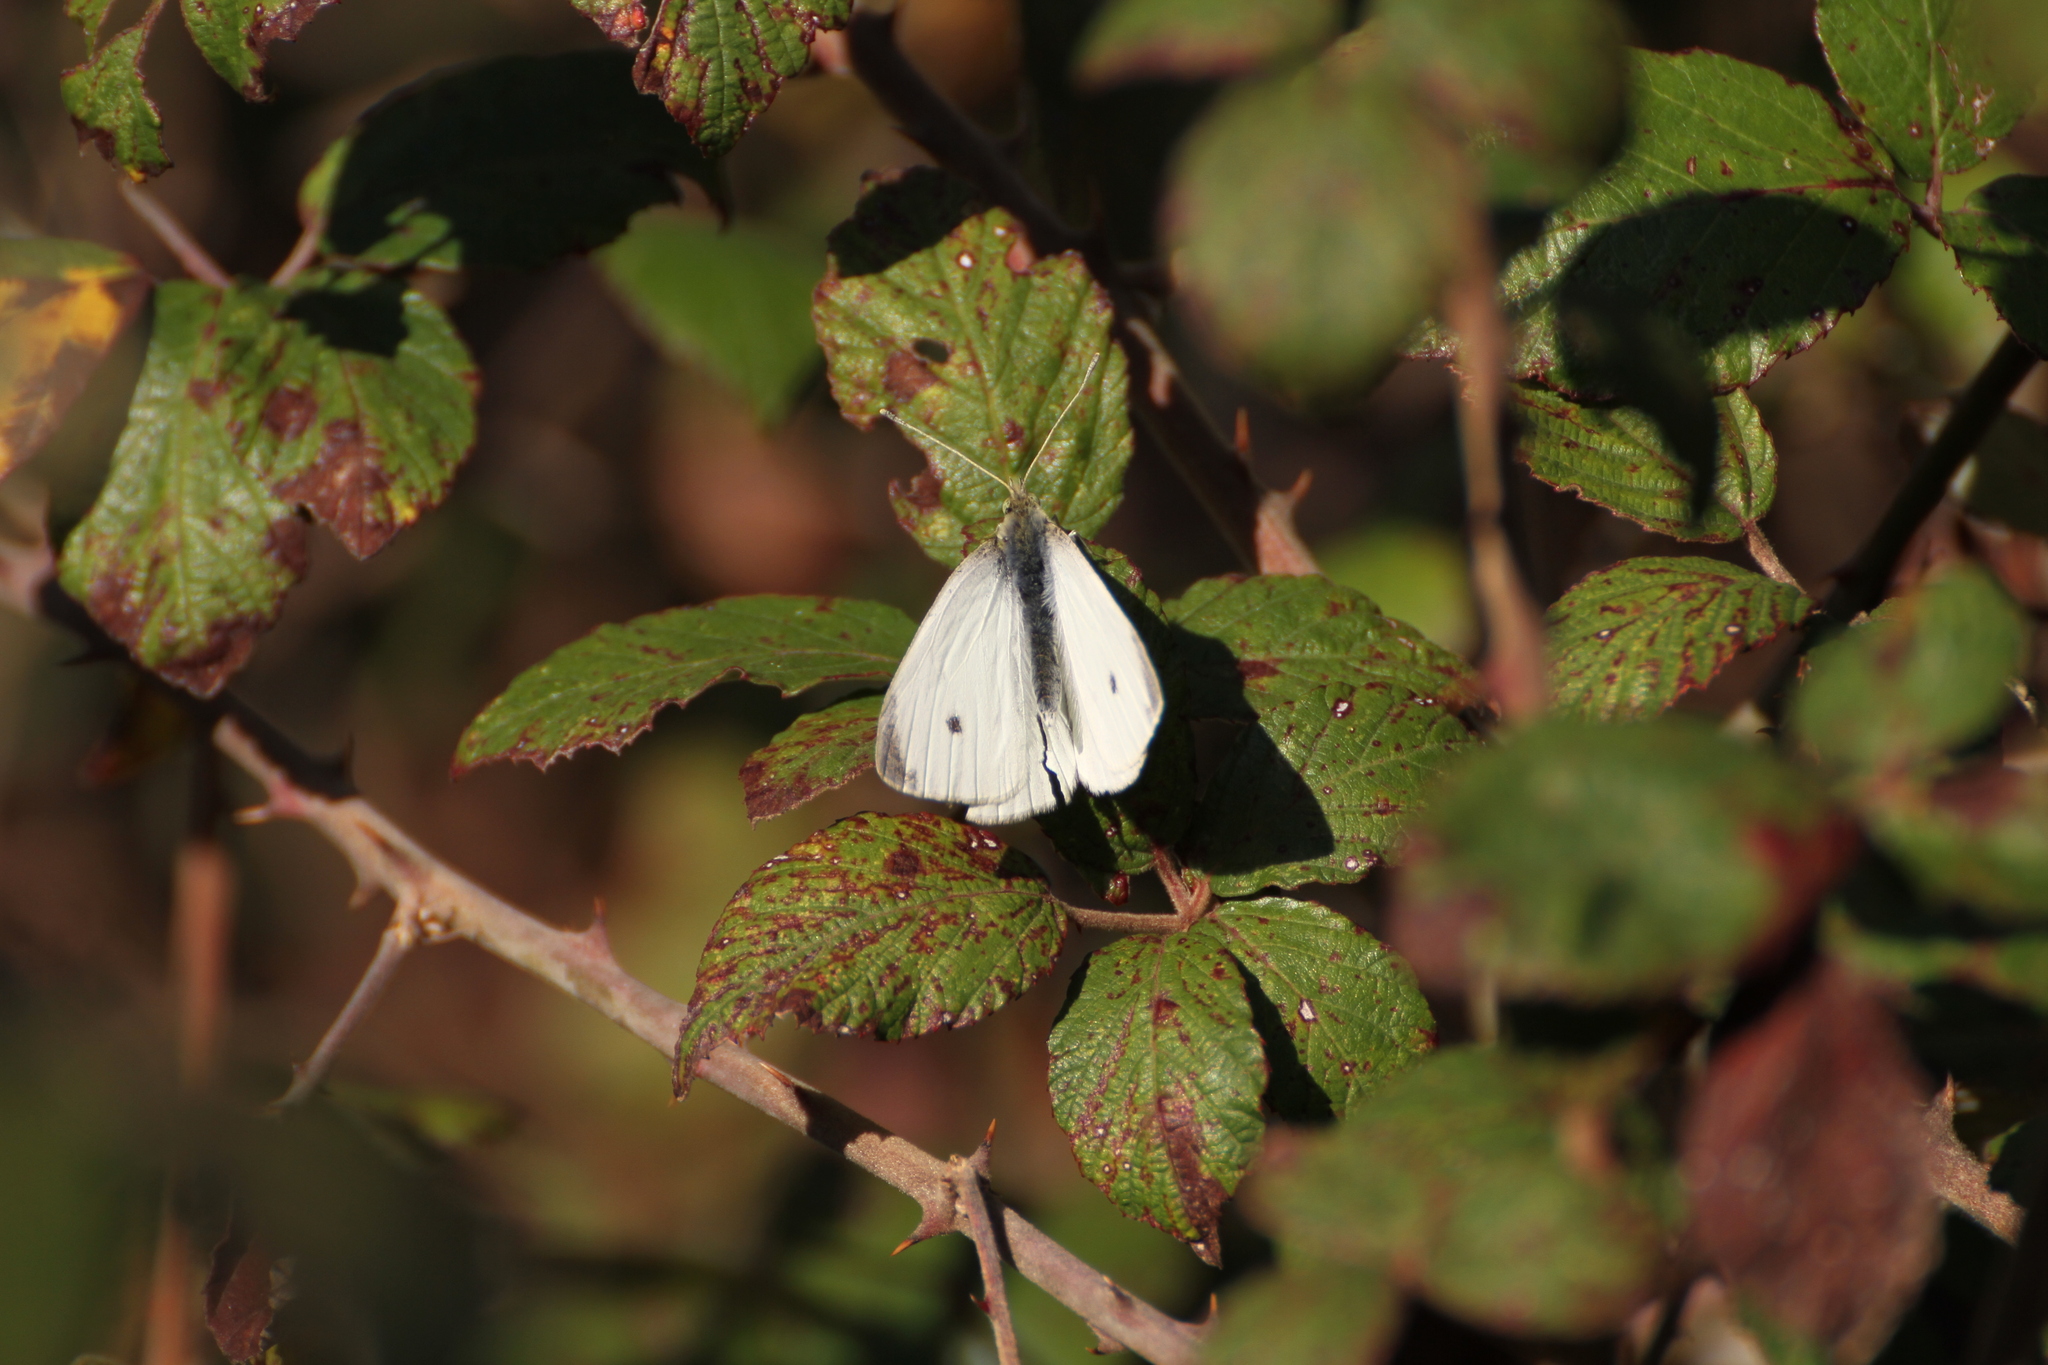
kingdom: Animalia
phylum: Arthropoda
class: Insecta
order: Lepidoptera
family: Pieridae
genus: Pieris
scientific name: Pieris rapae
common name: Small white
